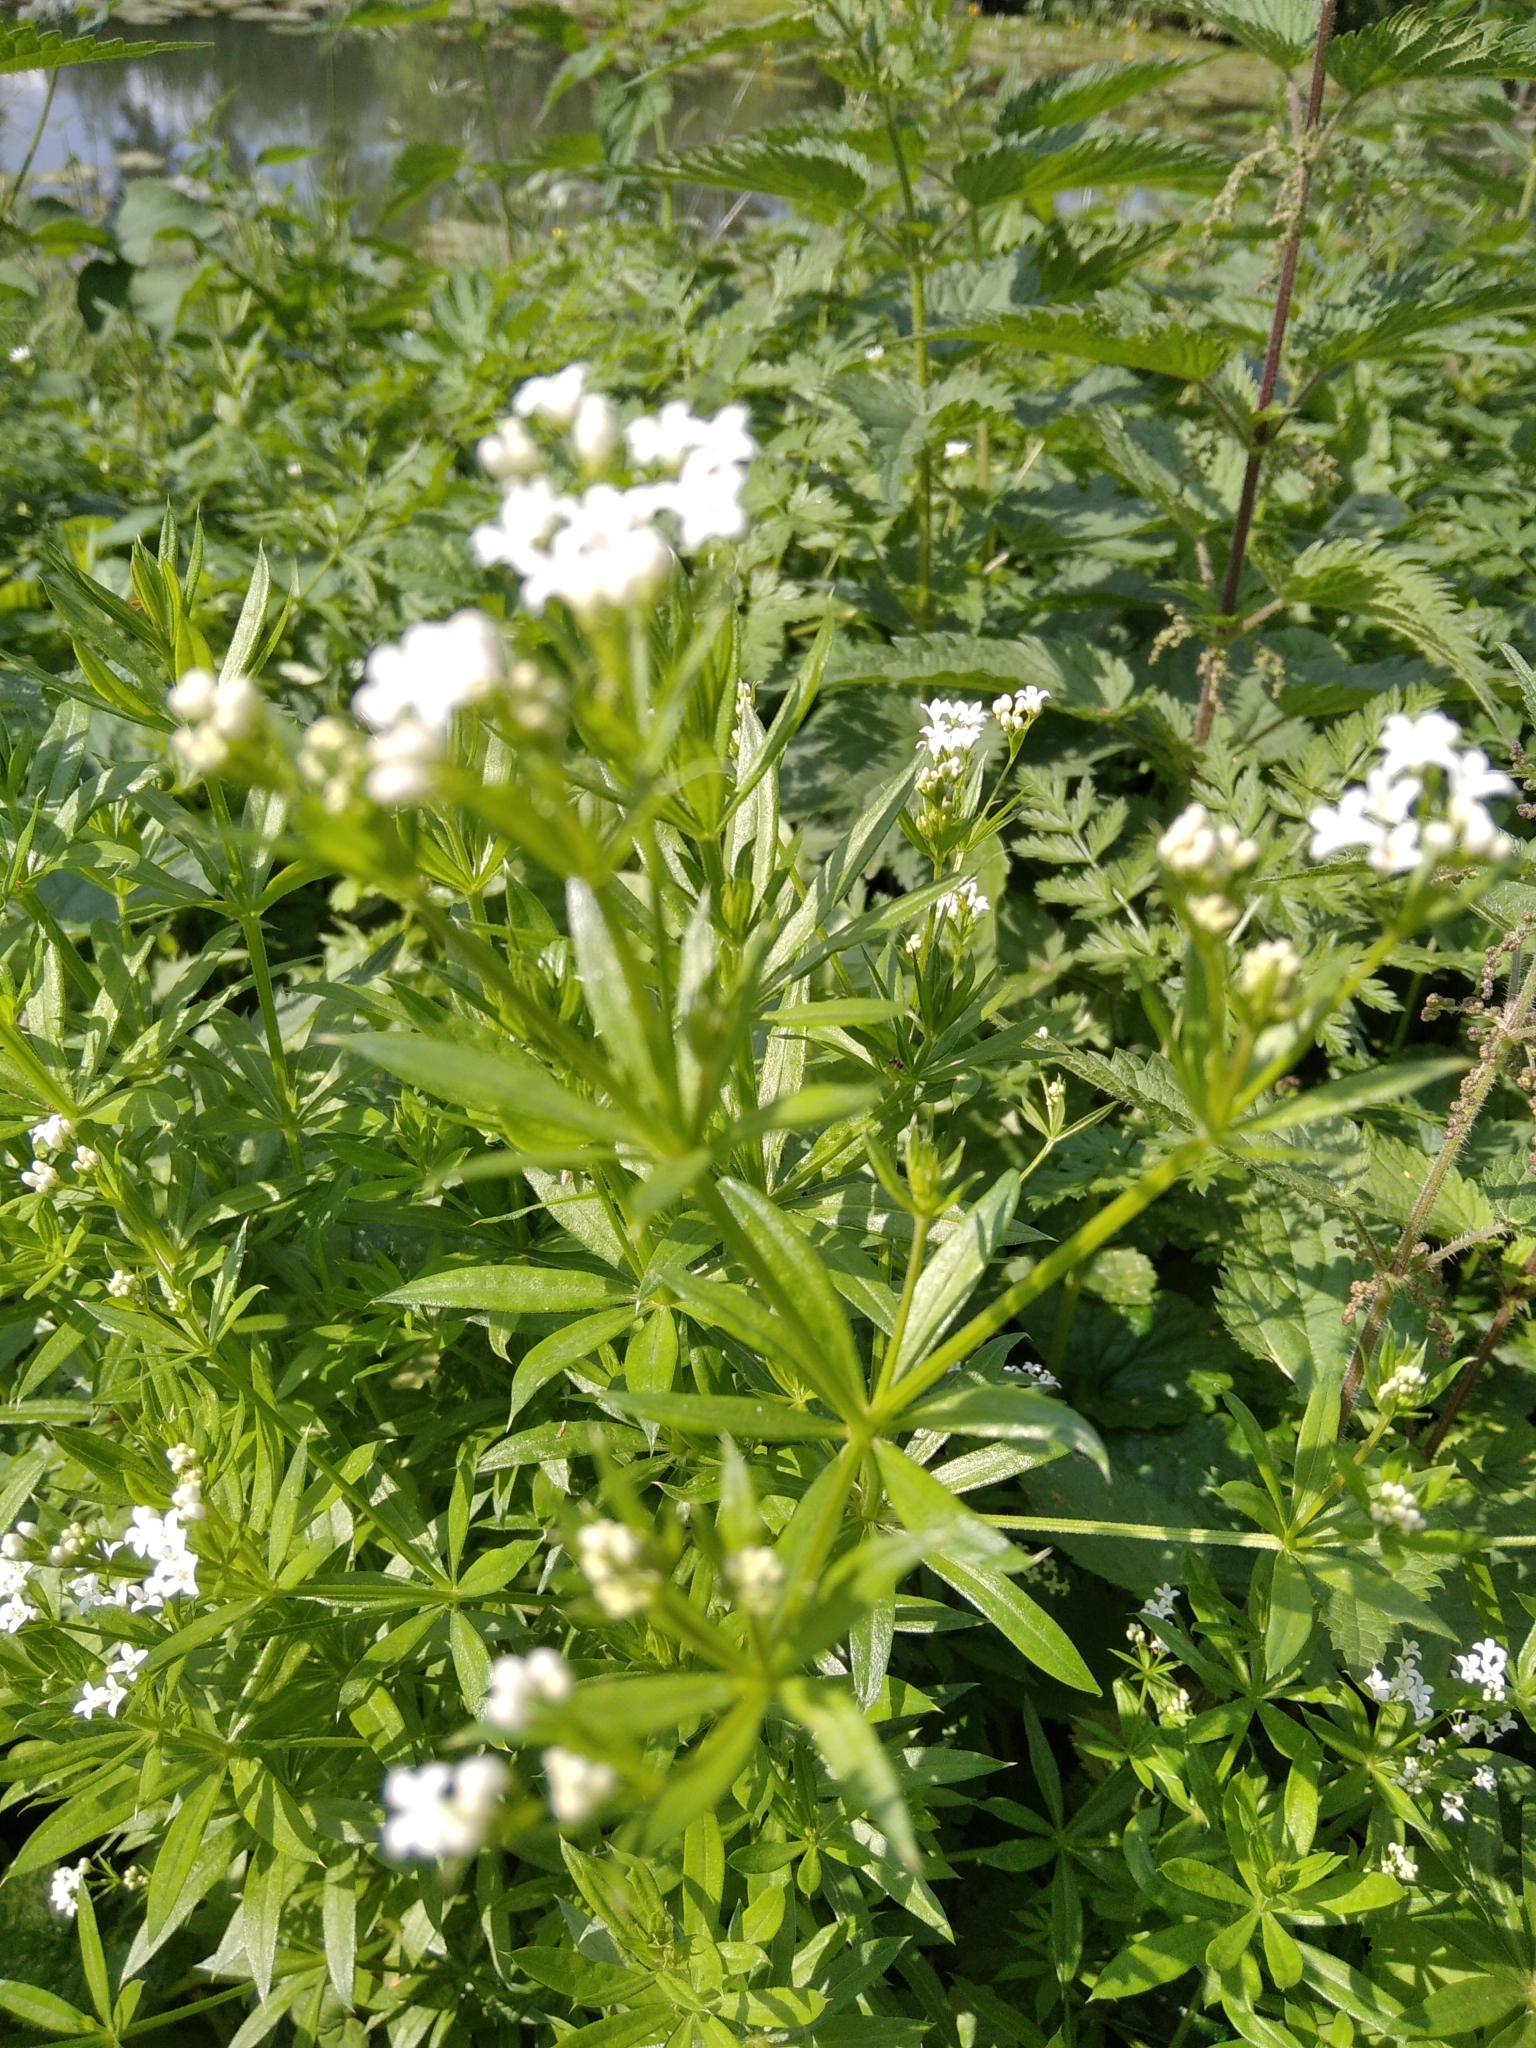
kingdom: Plantae
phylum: Tracheophyta
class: Magnoliopsida
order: Gentianales
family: Rubiaceae
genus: Galium
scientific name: Galium rivale
